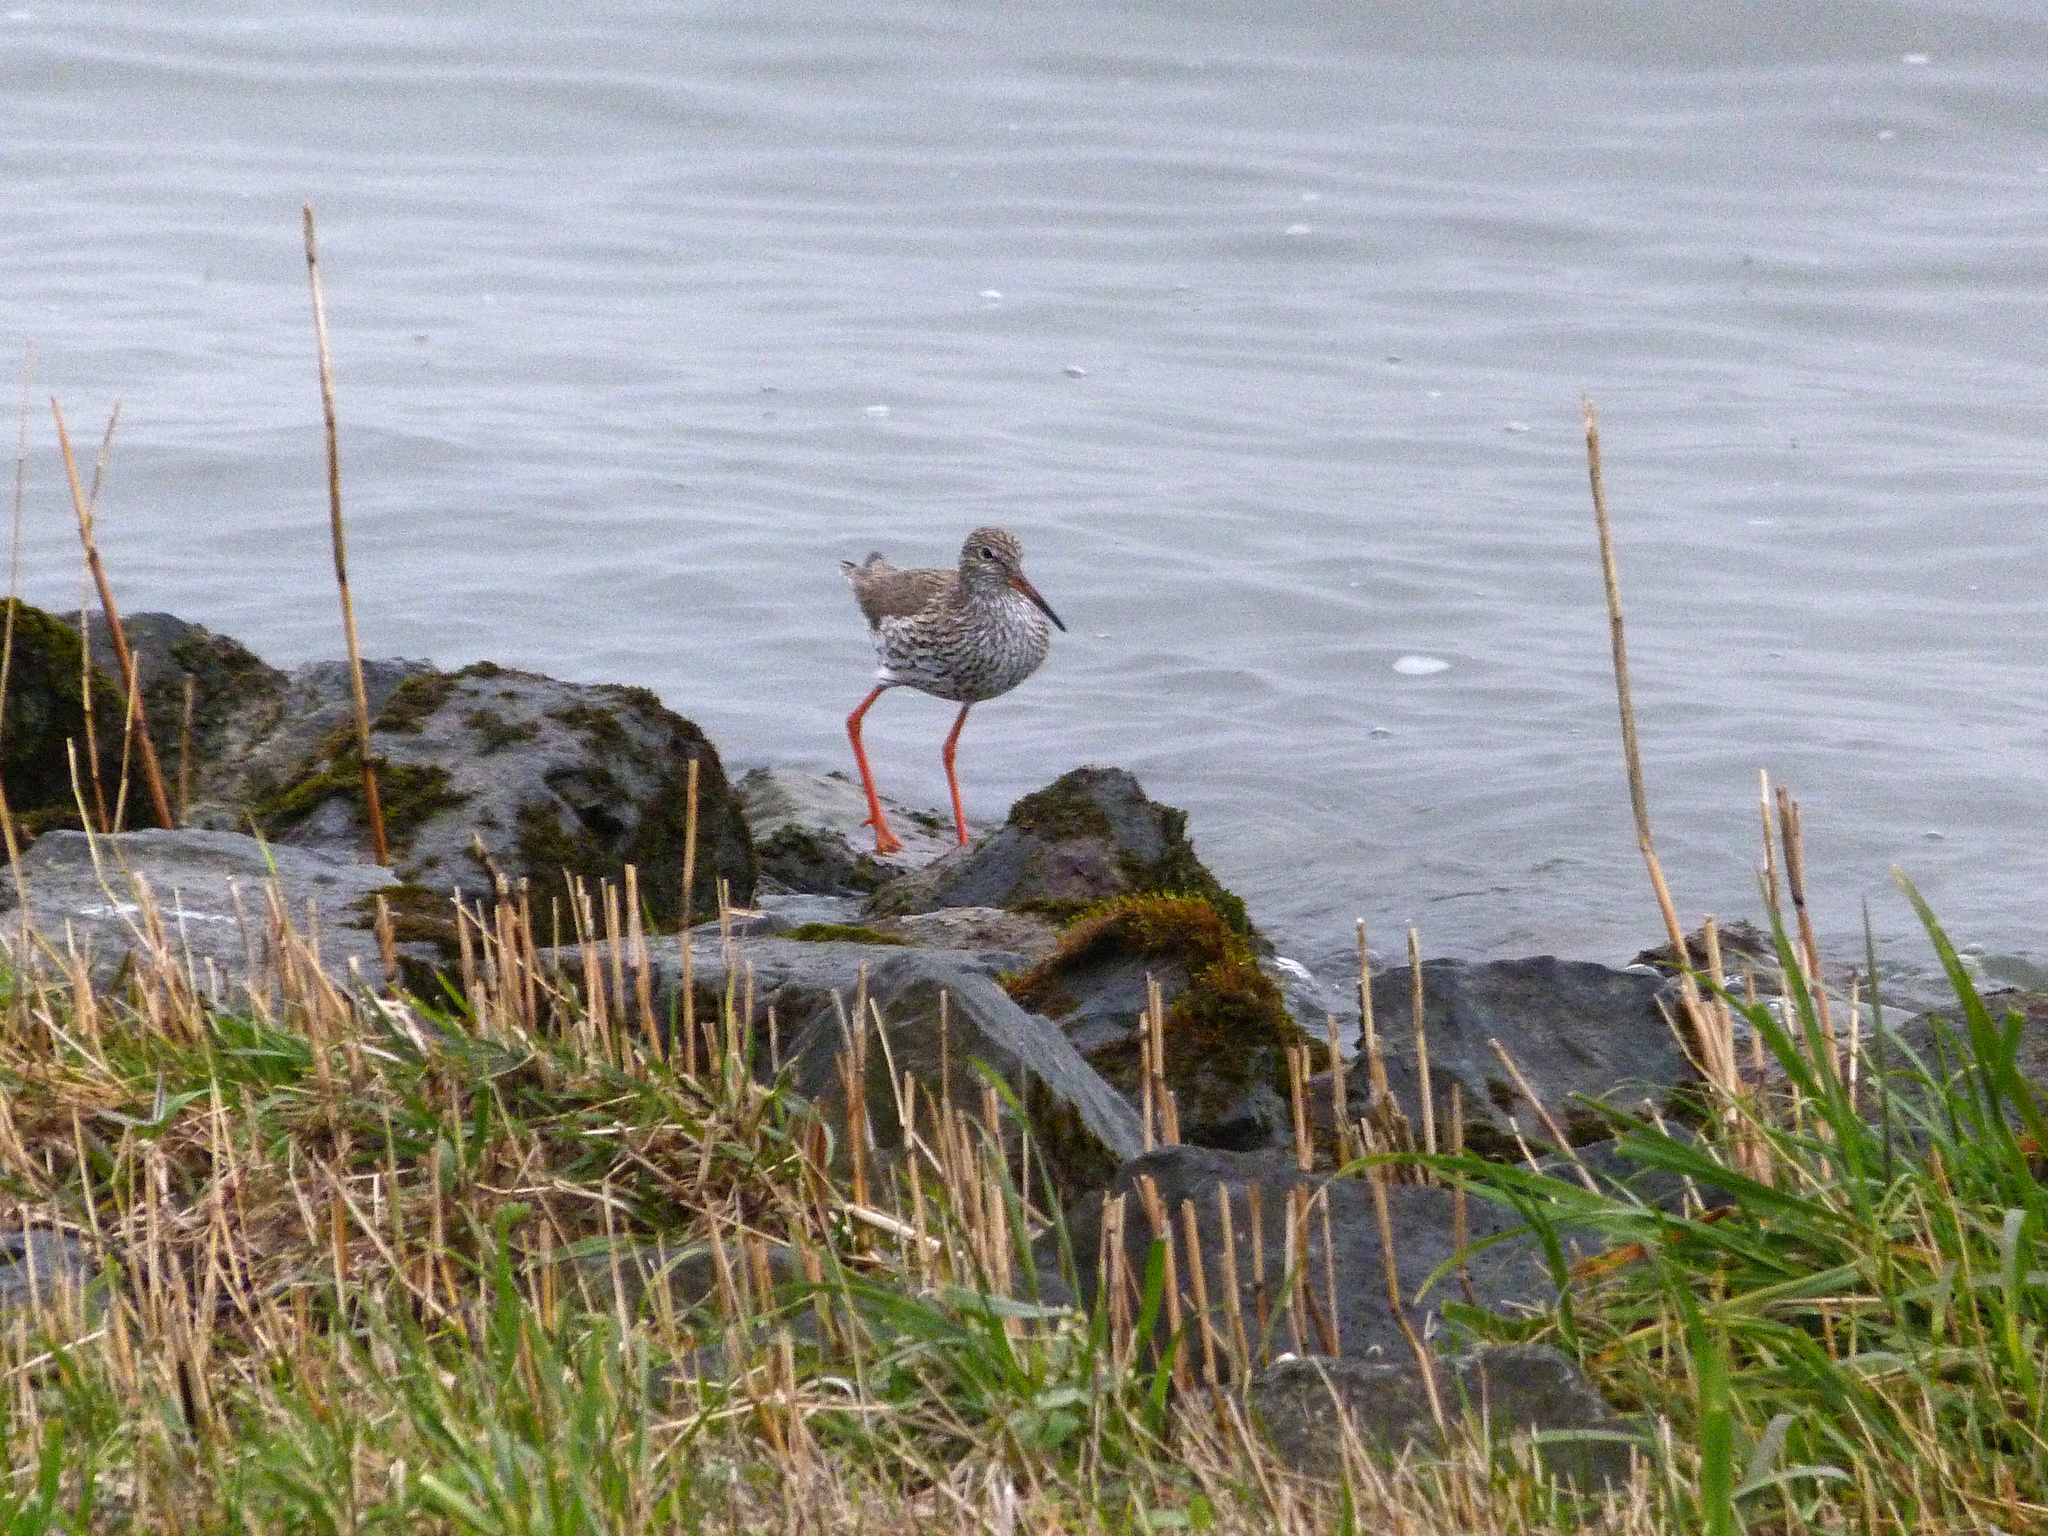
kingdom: Animalia
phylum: Chordata
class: Aves
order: Charadriiformes
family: Scolopacidae
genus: Tringa
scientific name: Tringa totanus
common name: Common redshank
